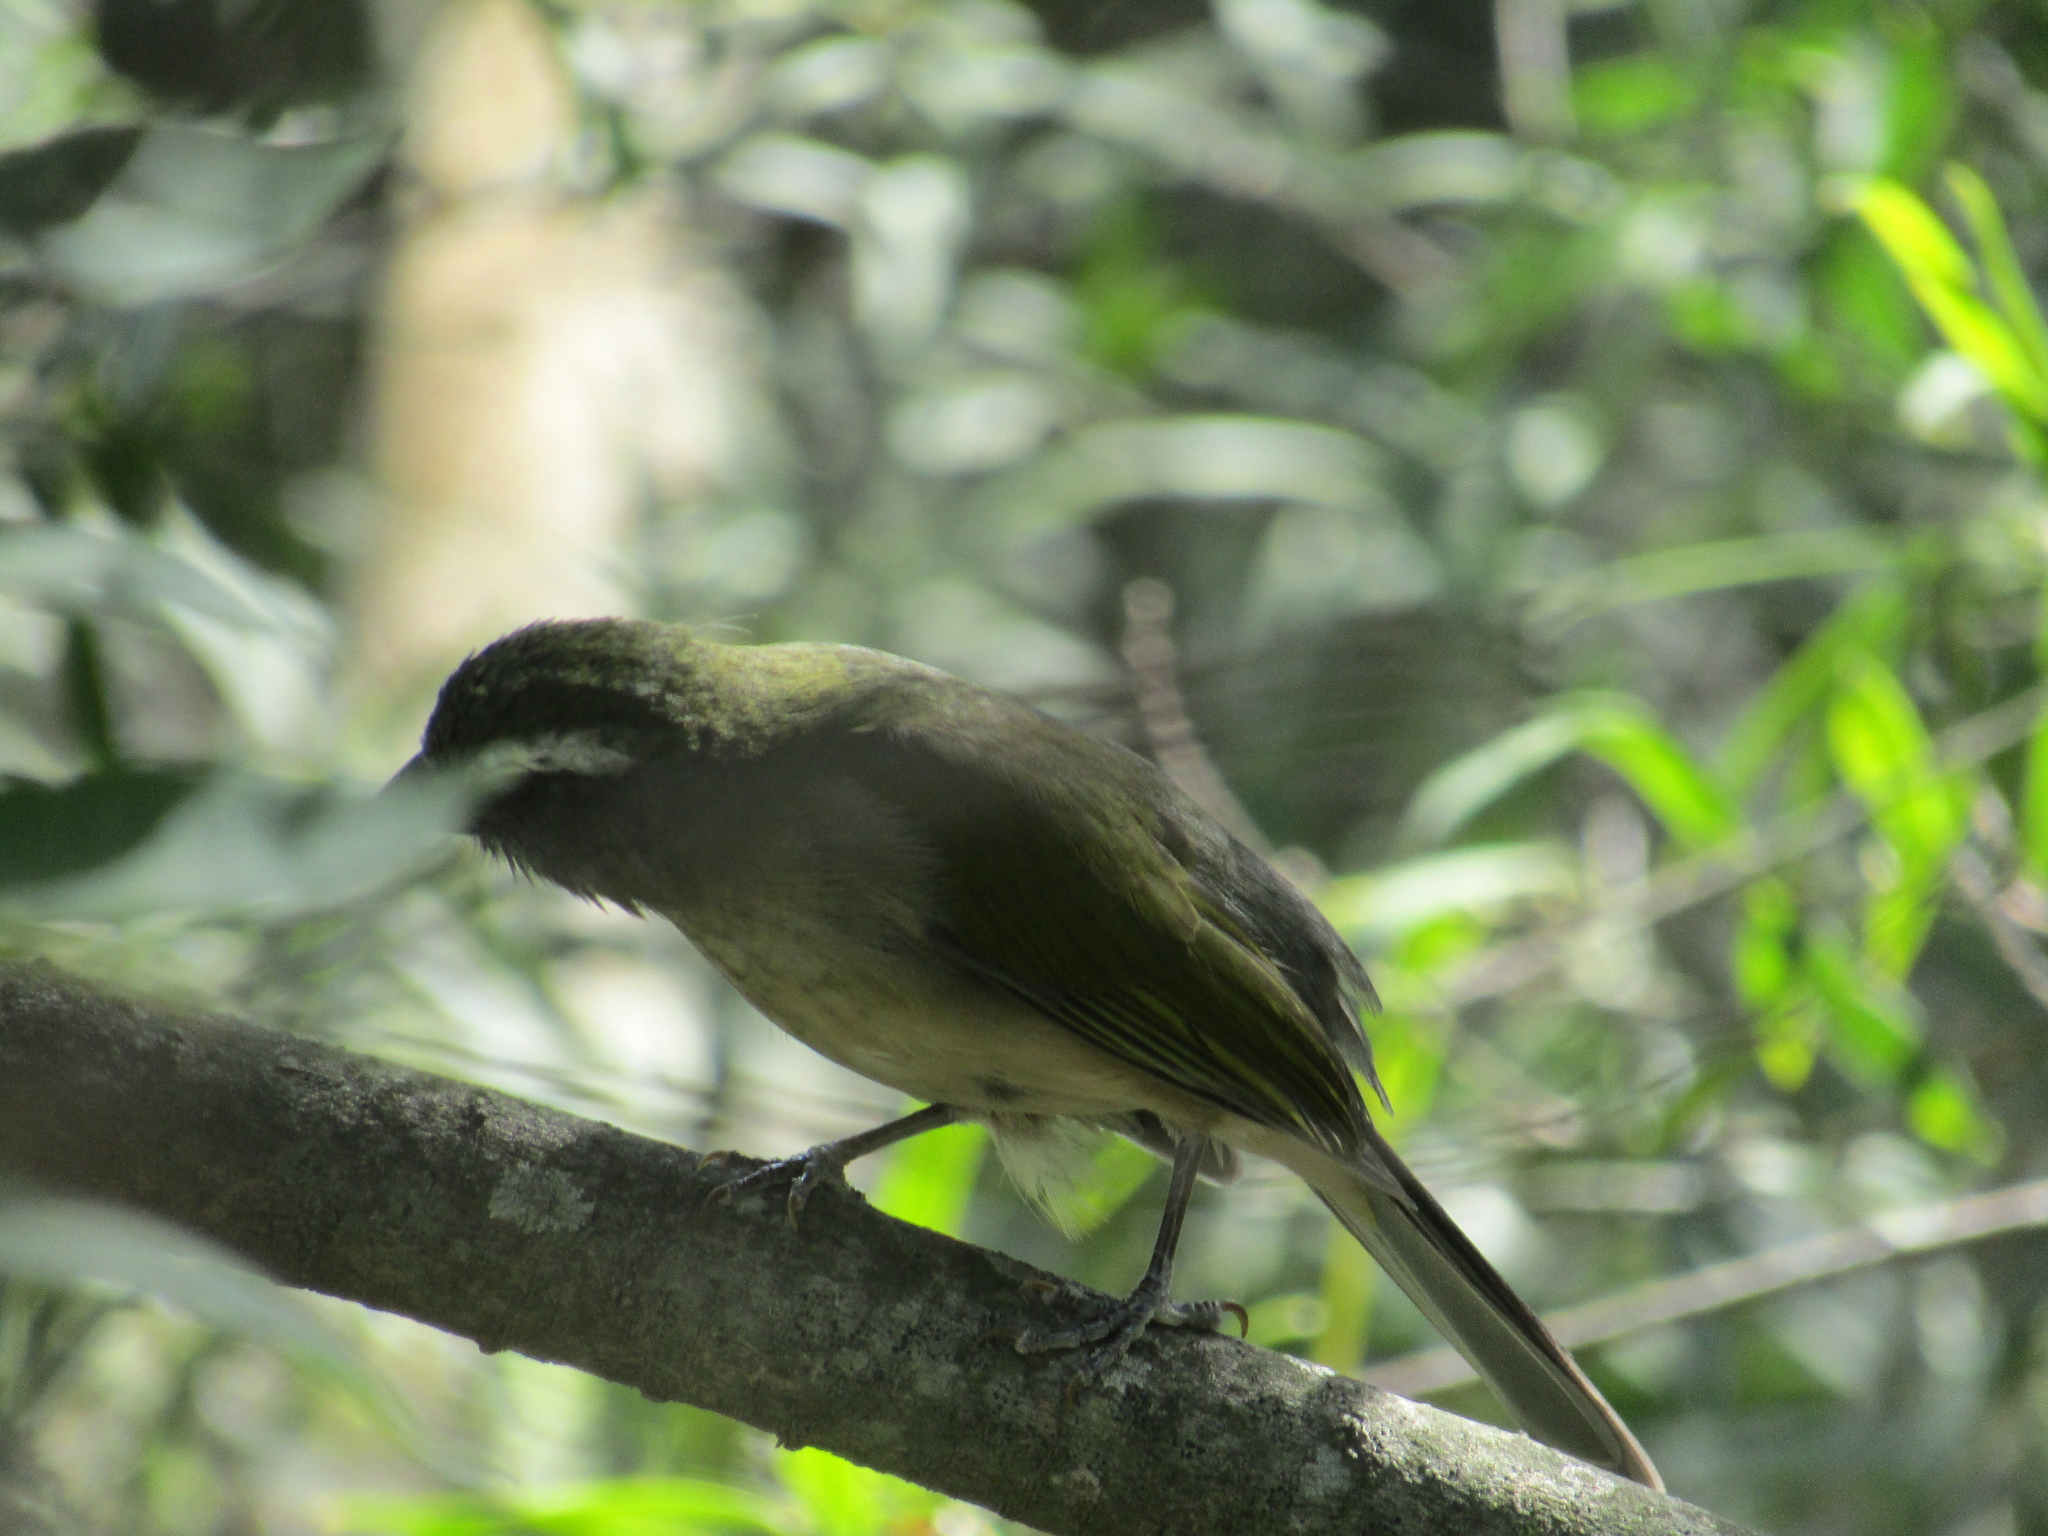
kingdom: Animalia
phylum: Chordata
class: Aves
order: Passeriformes
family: Thraupidae
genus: Saltator
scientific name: Saltator similis
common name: Green-winged saltator
